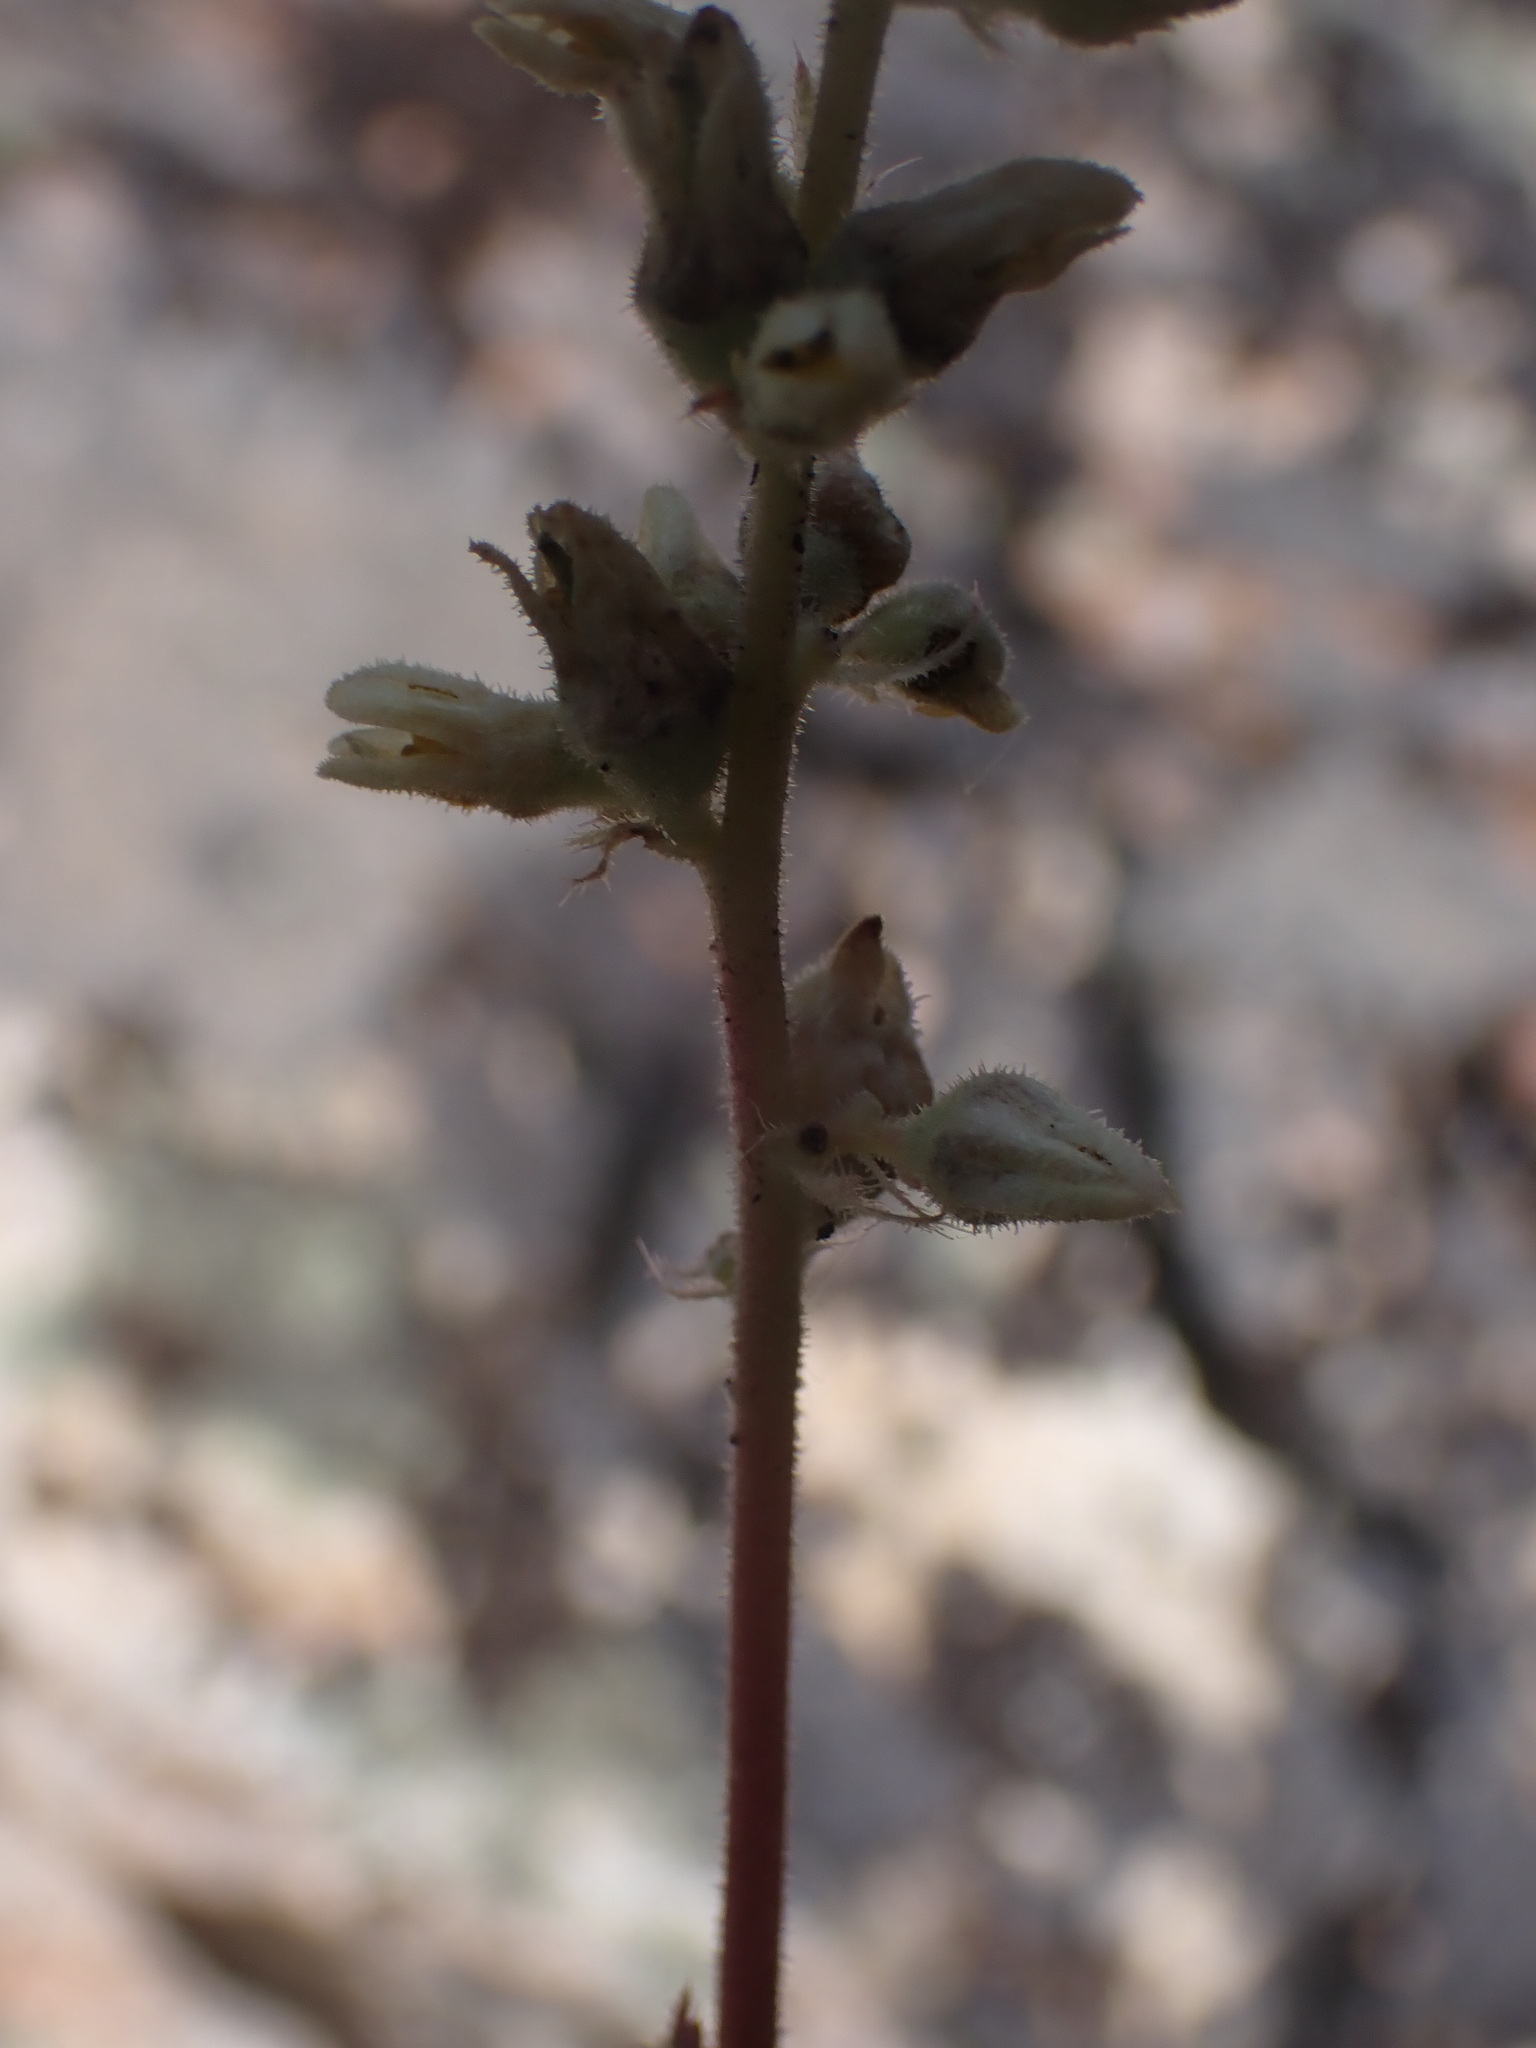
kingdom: Plantae
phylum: Tracheophyta
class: Magnoliopsida
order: Saxifragales
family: Saxifragaceae
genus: Heuchera
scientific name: Heuchera cylindrica
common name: Mat alumroot
